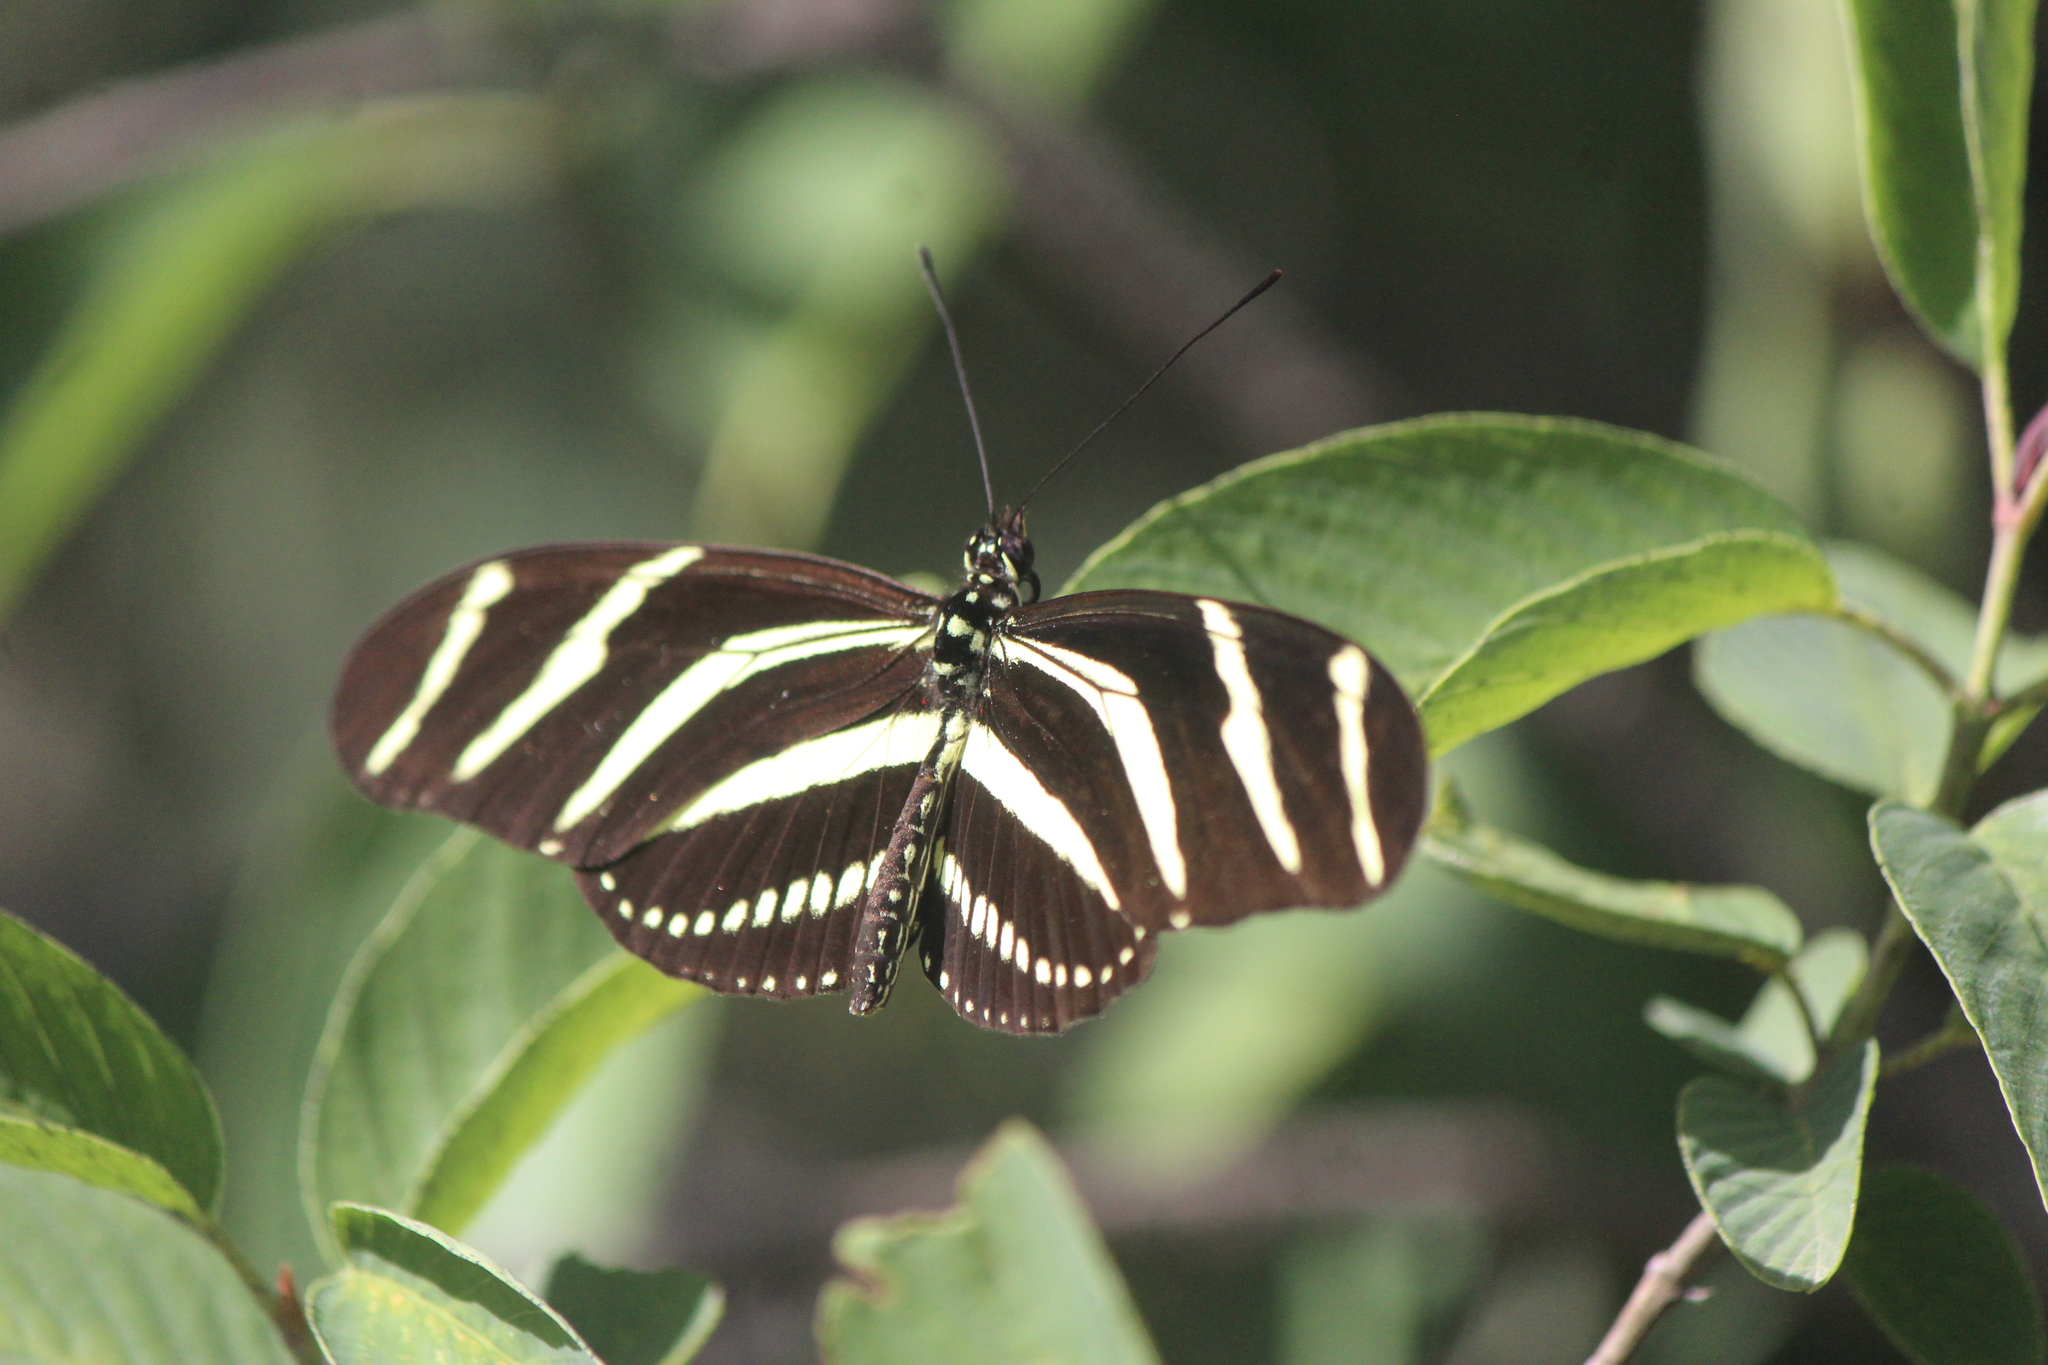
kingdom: Animalia
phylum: Arthropoda
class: Insecta
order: Lepidoptera
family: Nymphalidae
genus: Heliconius
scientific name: Heliconius charithonia
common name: Zebra long wing
